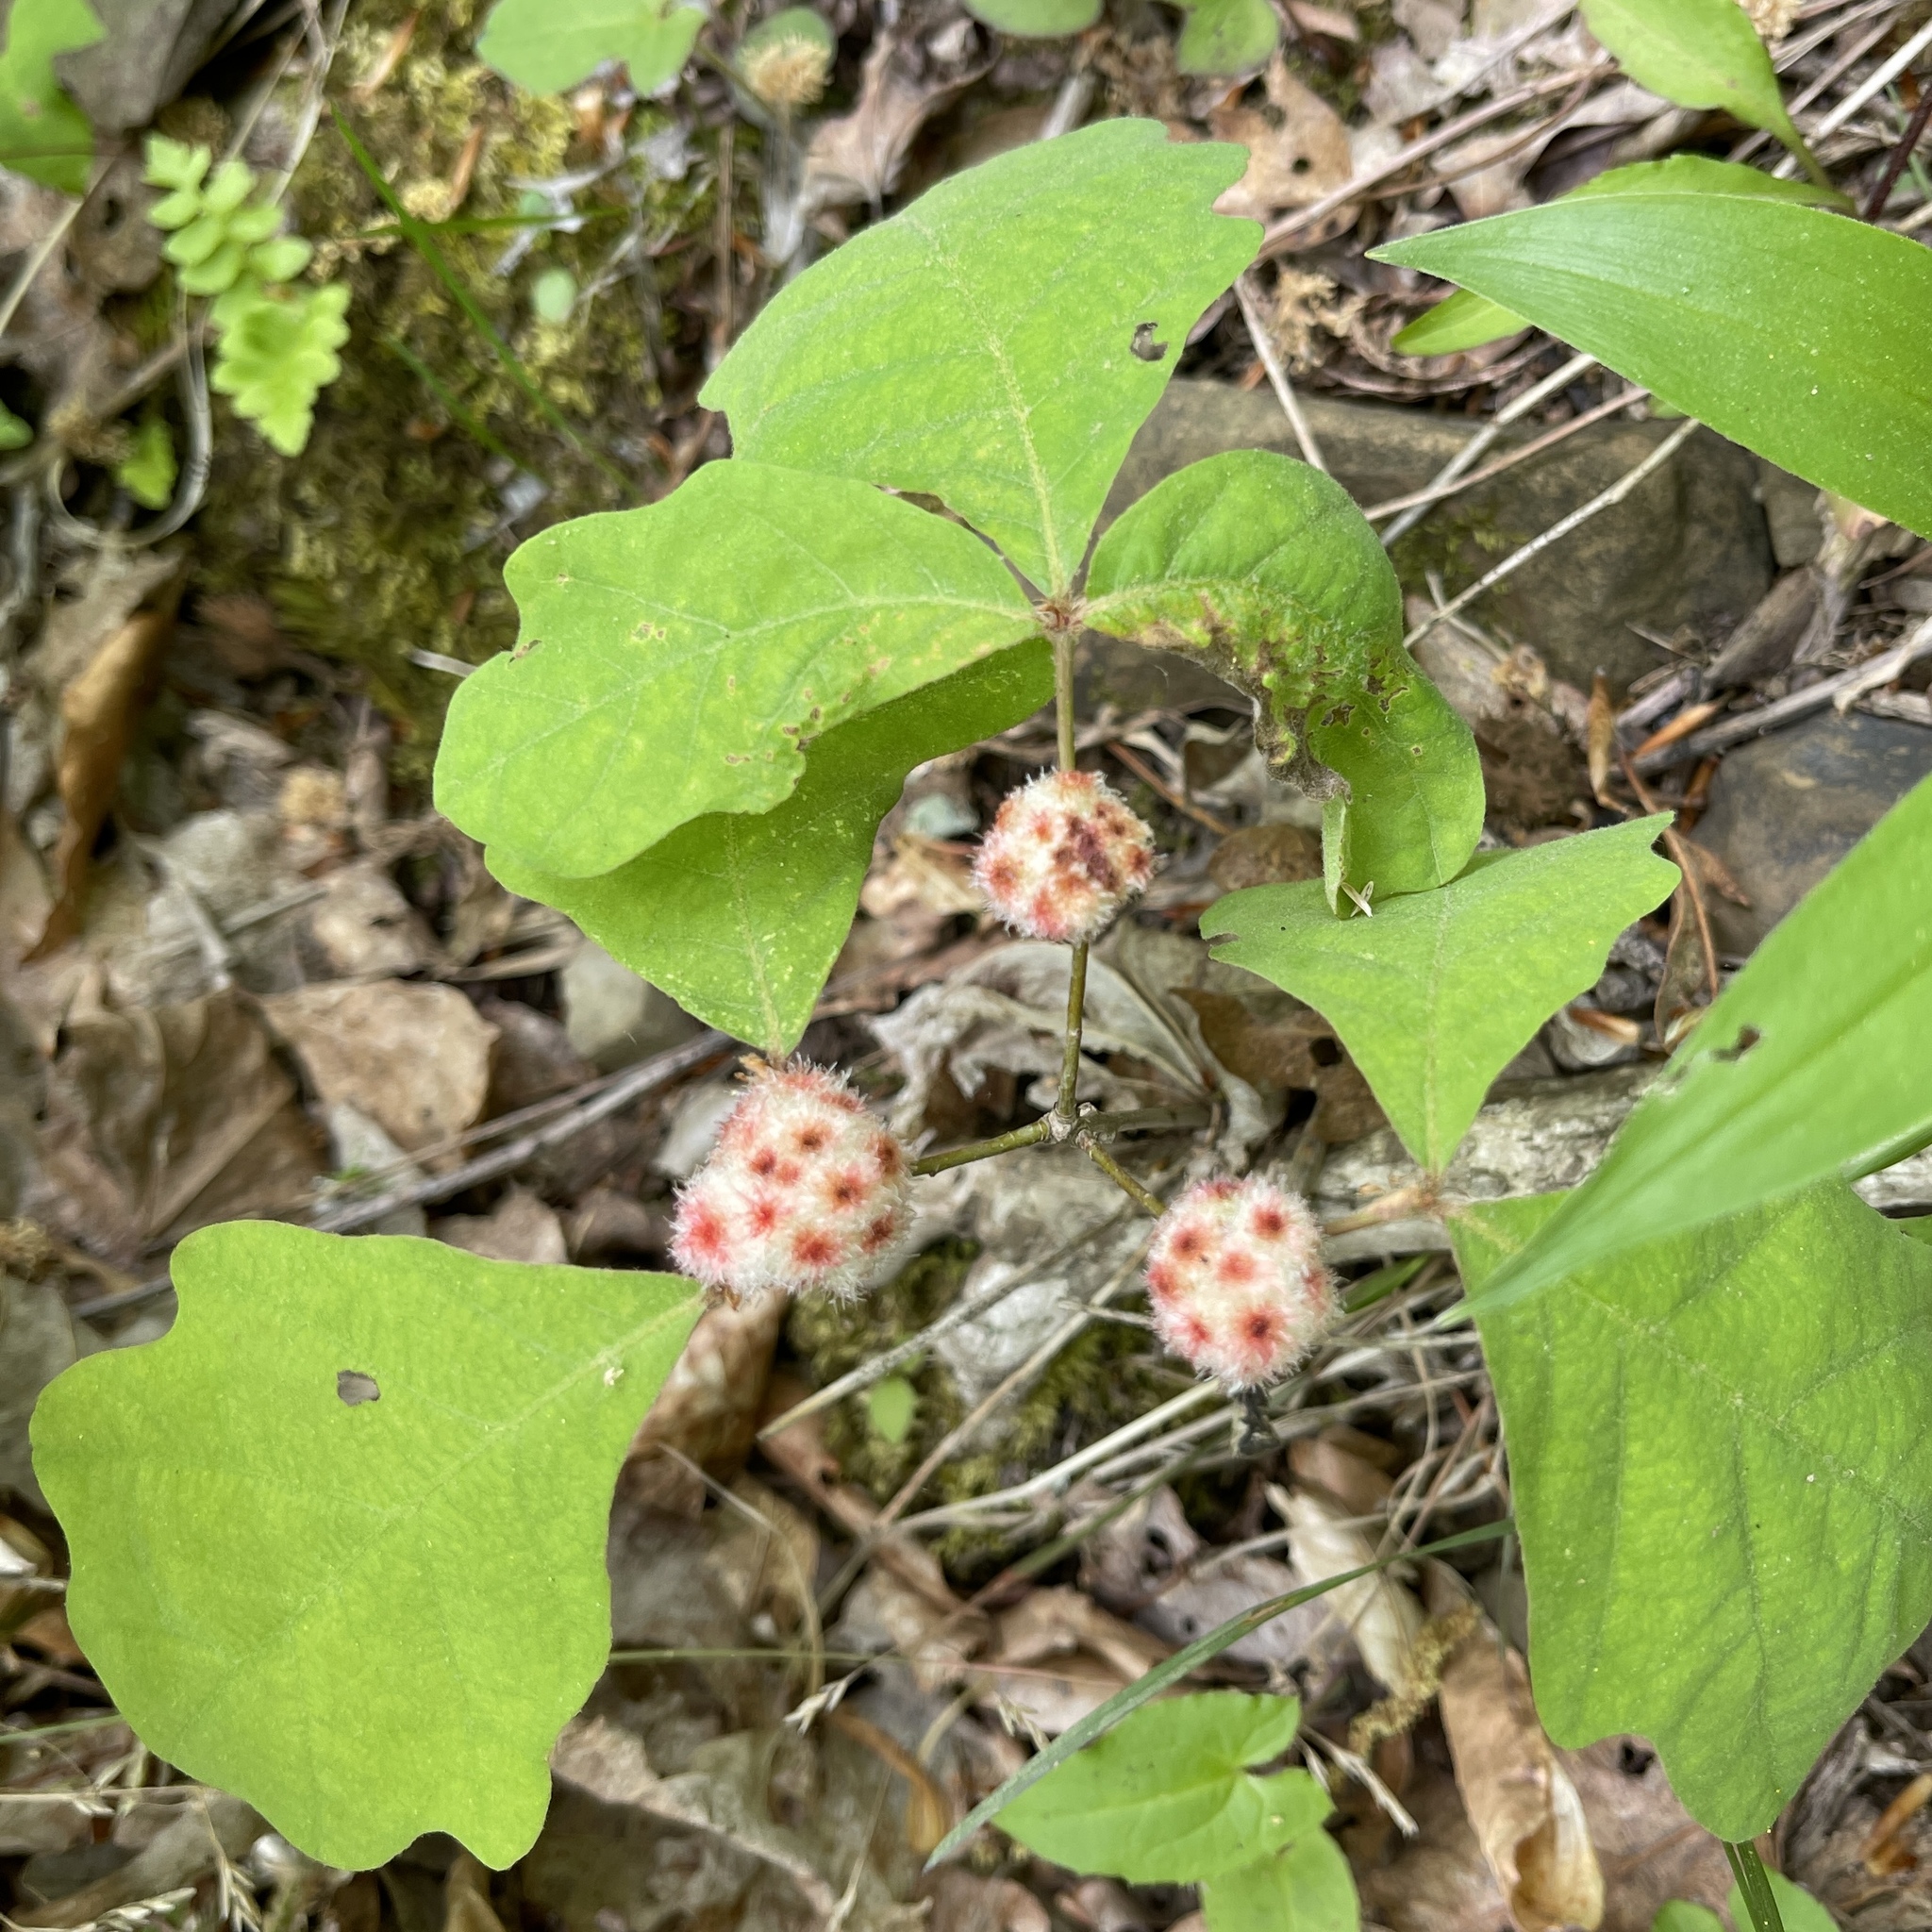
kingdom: Animalia
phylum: Arthropoda
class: Insecta
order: Hymenoptera
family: Cynipidae
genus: Callirhytis
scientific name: Callirhytis
